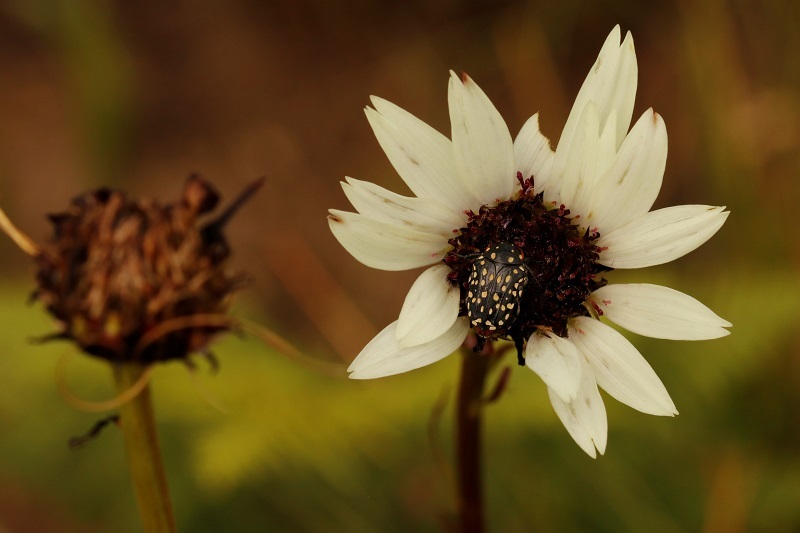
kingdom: Animalia
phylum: Arthropoda
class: Insecta
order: Coleoptera
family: Scarabaeidae
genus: Oxythyrea
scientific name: Oxythyrea
